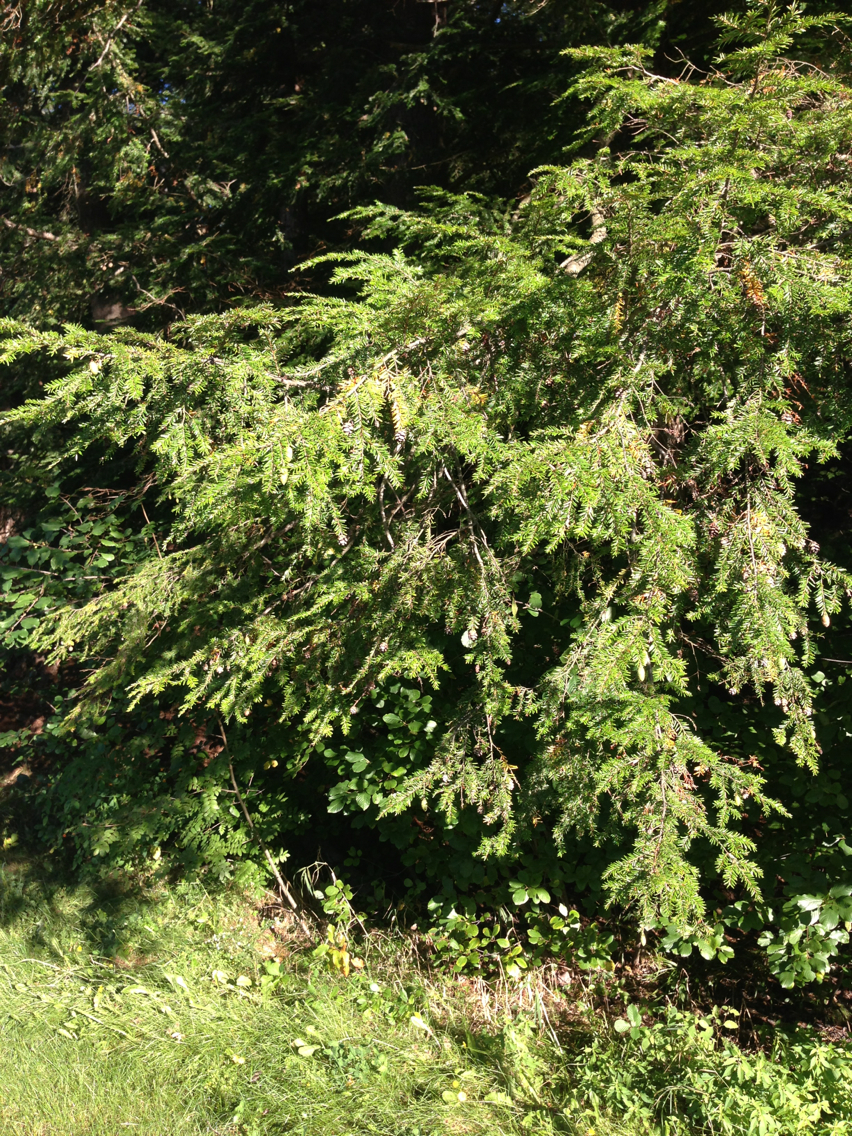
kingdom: Plantae
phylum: Tracheophyta
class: Pinopsida
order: Pinales
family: Pinaceae
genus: Tsuga
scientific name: Tsuga canadensis
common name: Eastern hemlock
